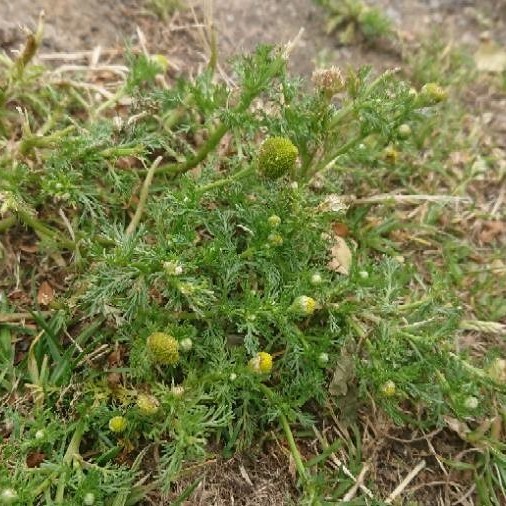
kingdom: Plantae
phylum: Tracheophyta
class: Magnoliopsida
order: Asterales
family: Asteraceae
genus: Matricaria
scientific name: Matricaria discoidea
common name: Disc mayweed
